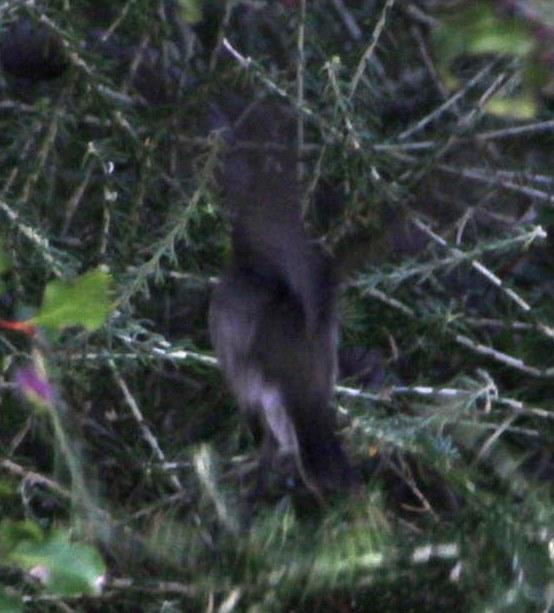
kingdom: Animalia
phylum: Chordata
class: Aves
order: Passeriformes
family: Nectariniidae
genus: Cinnyris
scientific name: Cinnyris fuscus
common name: Dusky sunbird
